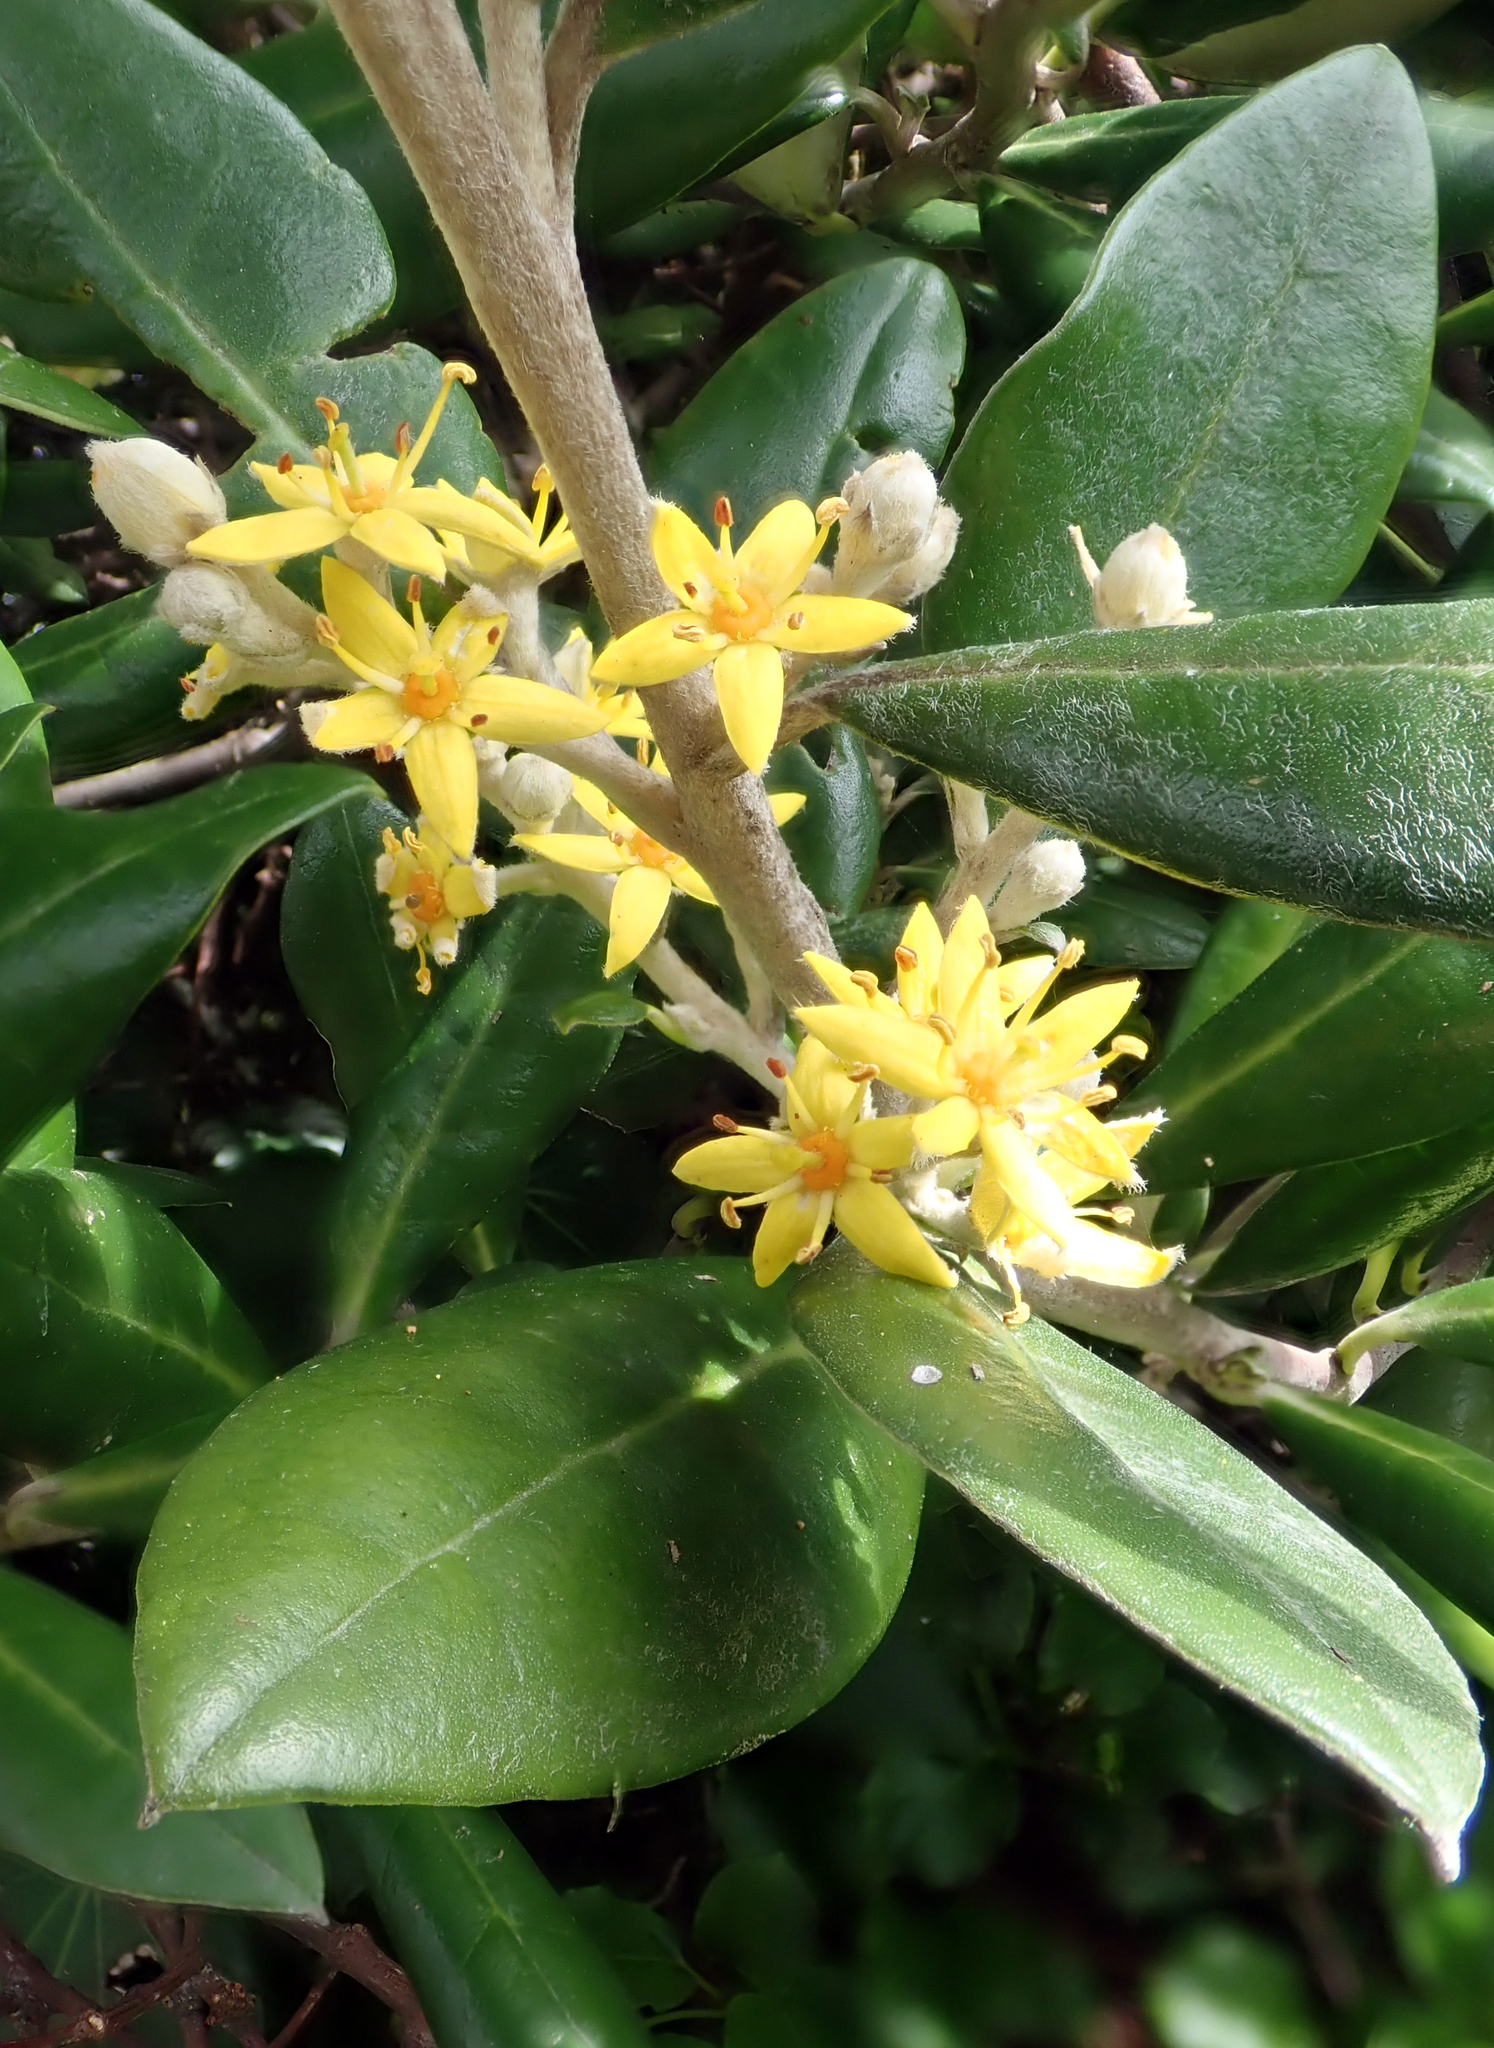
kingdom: Plantae
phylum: Tracheophyta
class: Magnoliopsida
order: Asterales
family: Argophyllaceae
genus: Corokia
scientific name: Corokia macrocarpa
